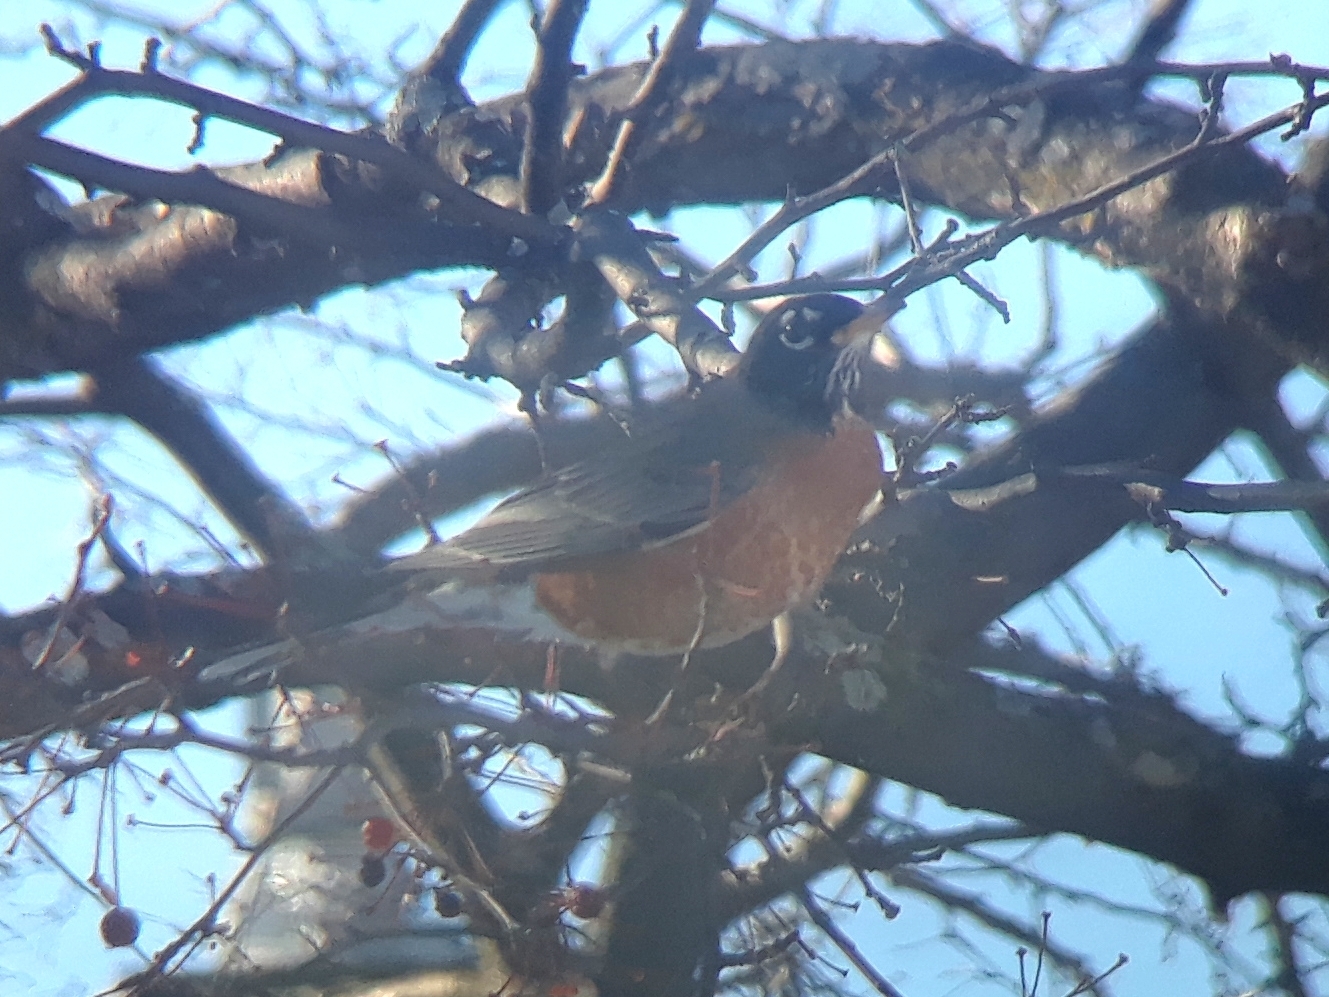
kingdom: Animalia
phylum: Chordata
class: Aves
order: Passeriformes
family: Turdidae
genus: Turdus
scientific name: Turdus migratorius
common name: American robin
